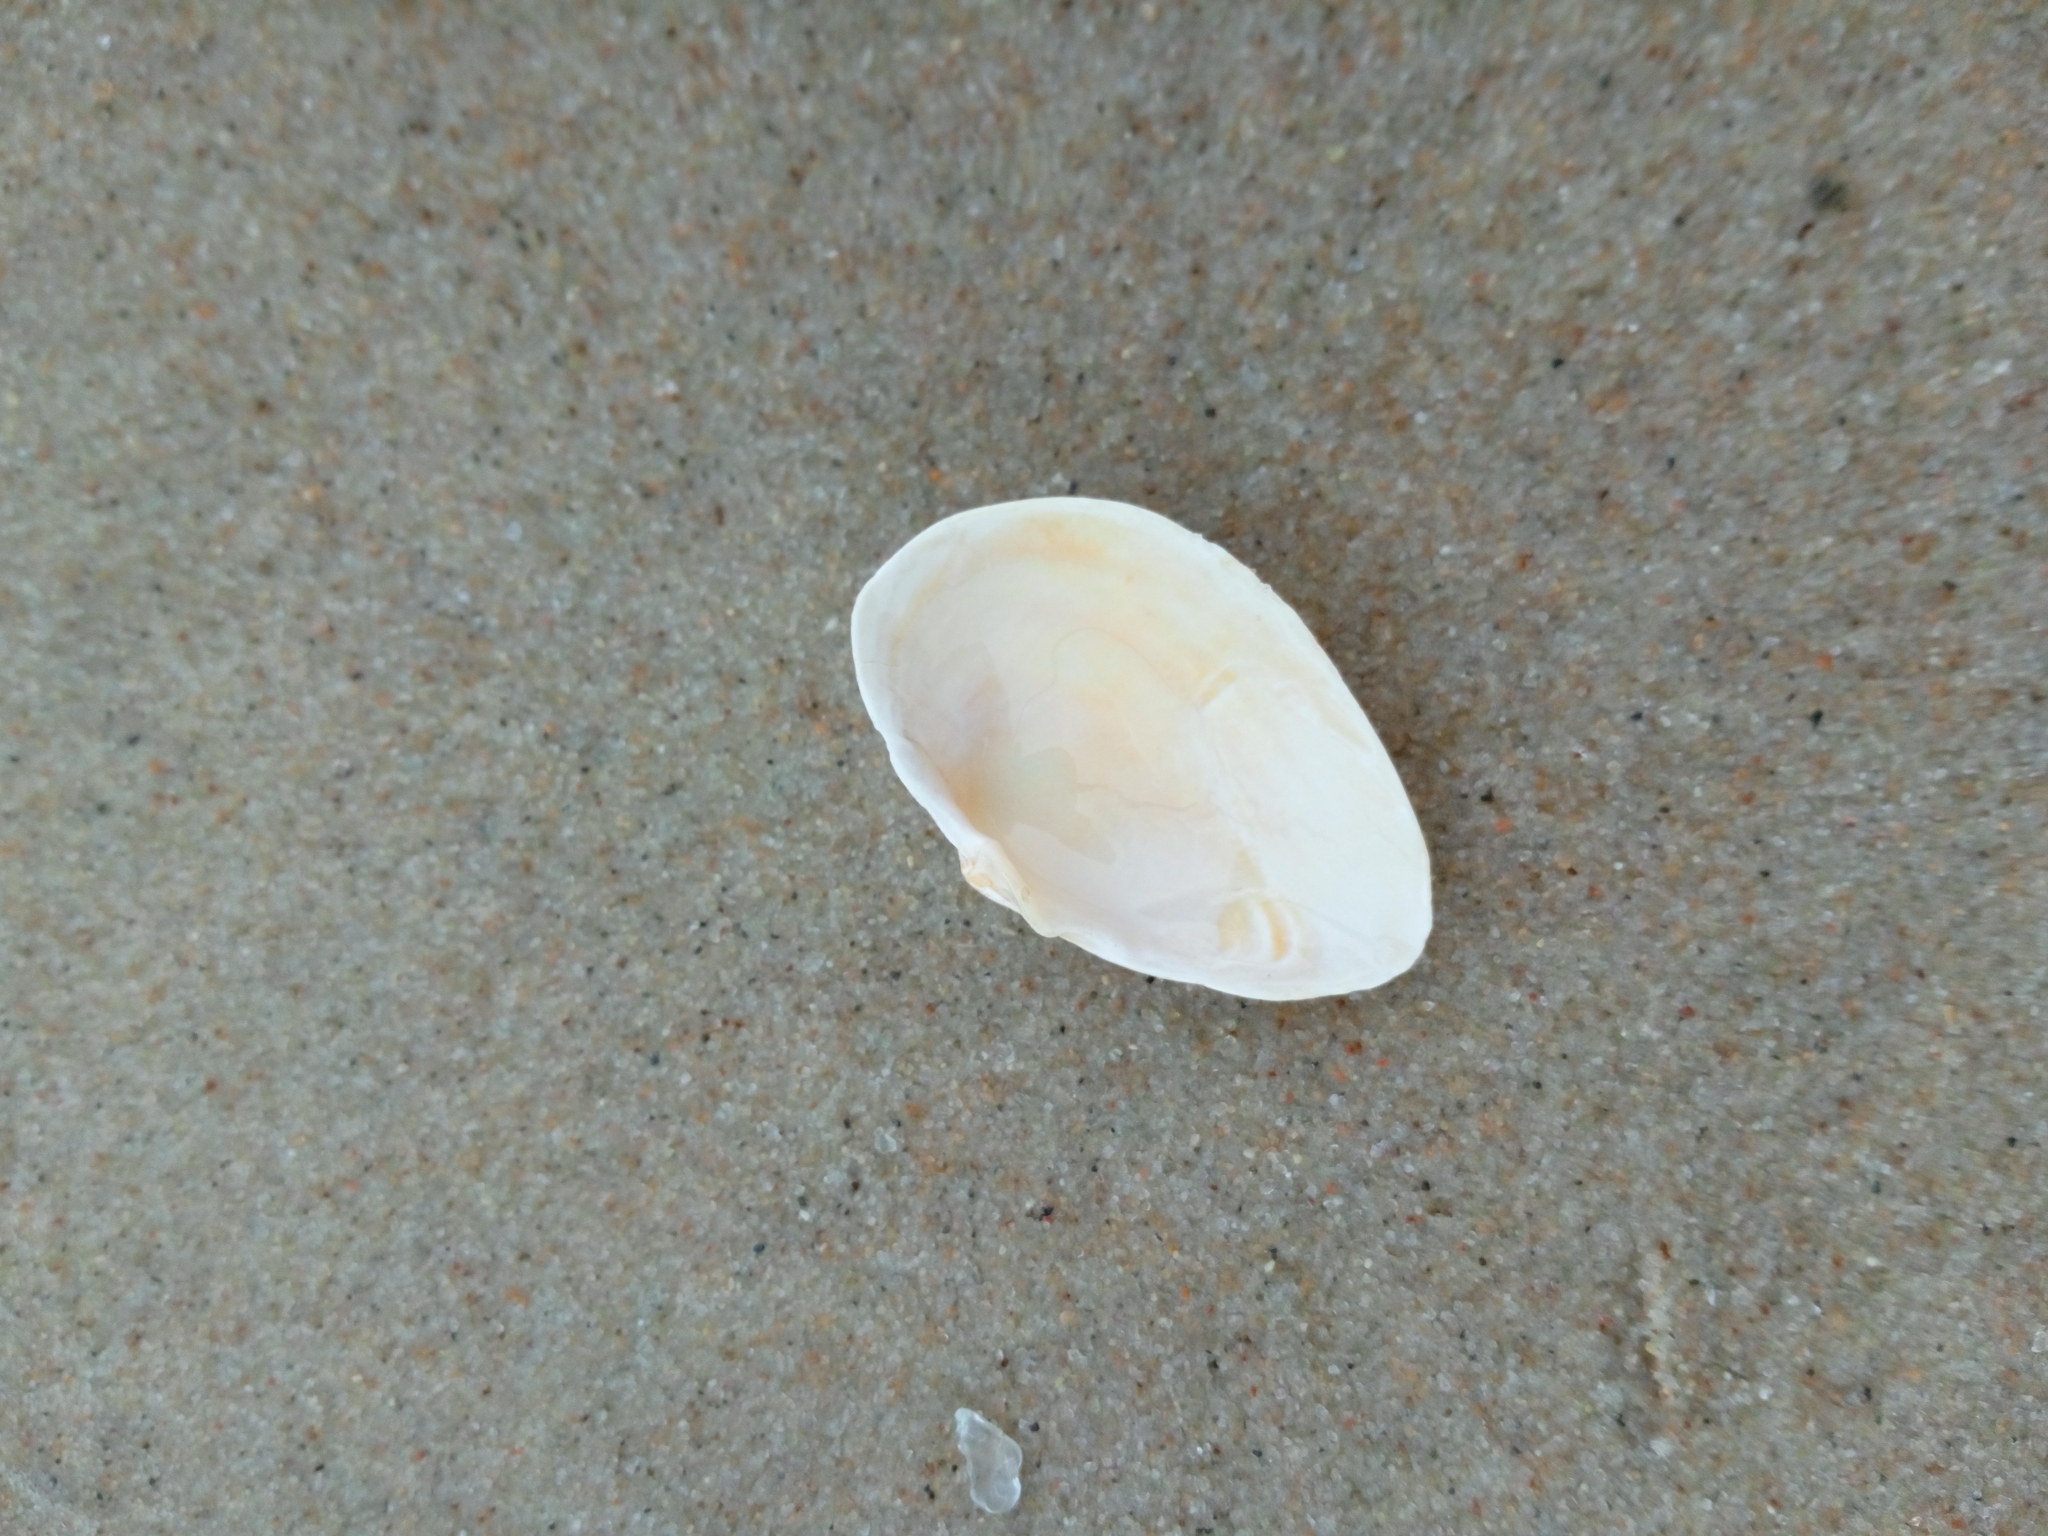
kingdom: Animalia
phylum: Mollusca
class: Bivalvia
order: Myida
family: Myidae
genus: Mya
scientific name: Mya arenaria
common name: Soft-shelled clam
